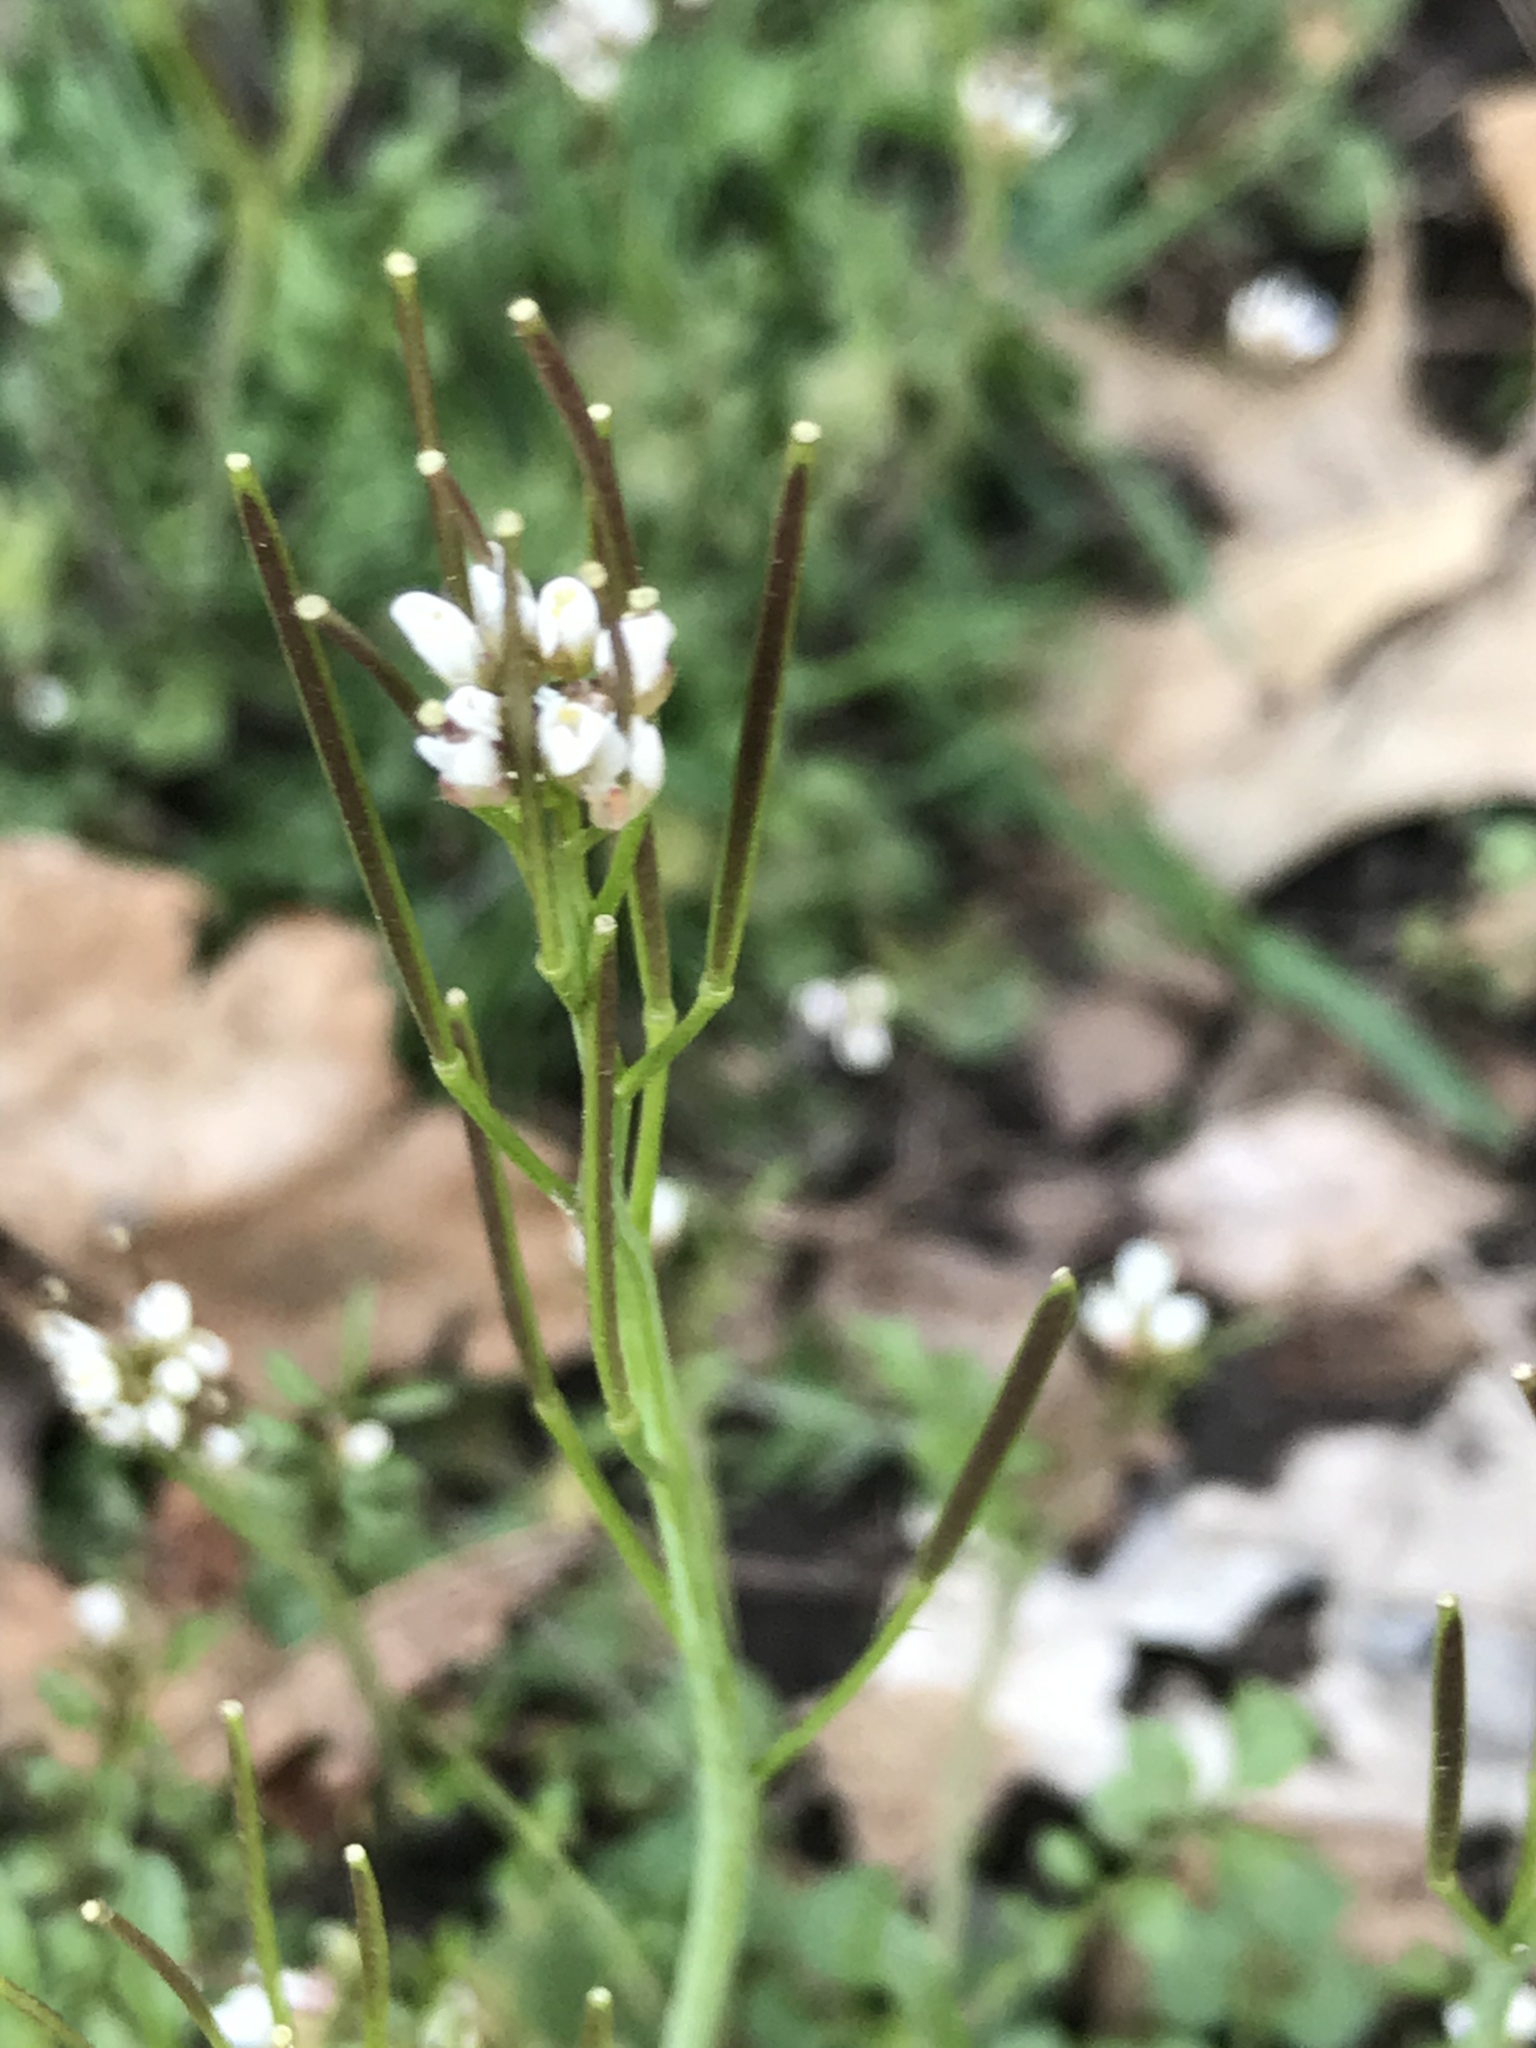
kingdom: Plantae
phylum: Tracheophyta
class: Magnoliopsida
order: Brassicales
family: Brassicaceae
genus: Cardamine
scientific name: Cardamine hirsuta
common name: Hairy bittercress
